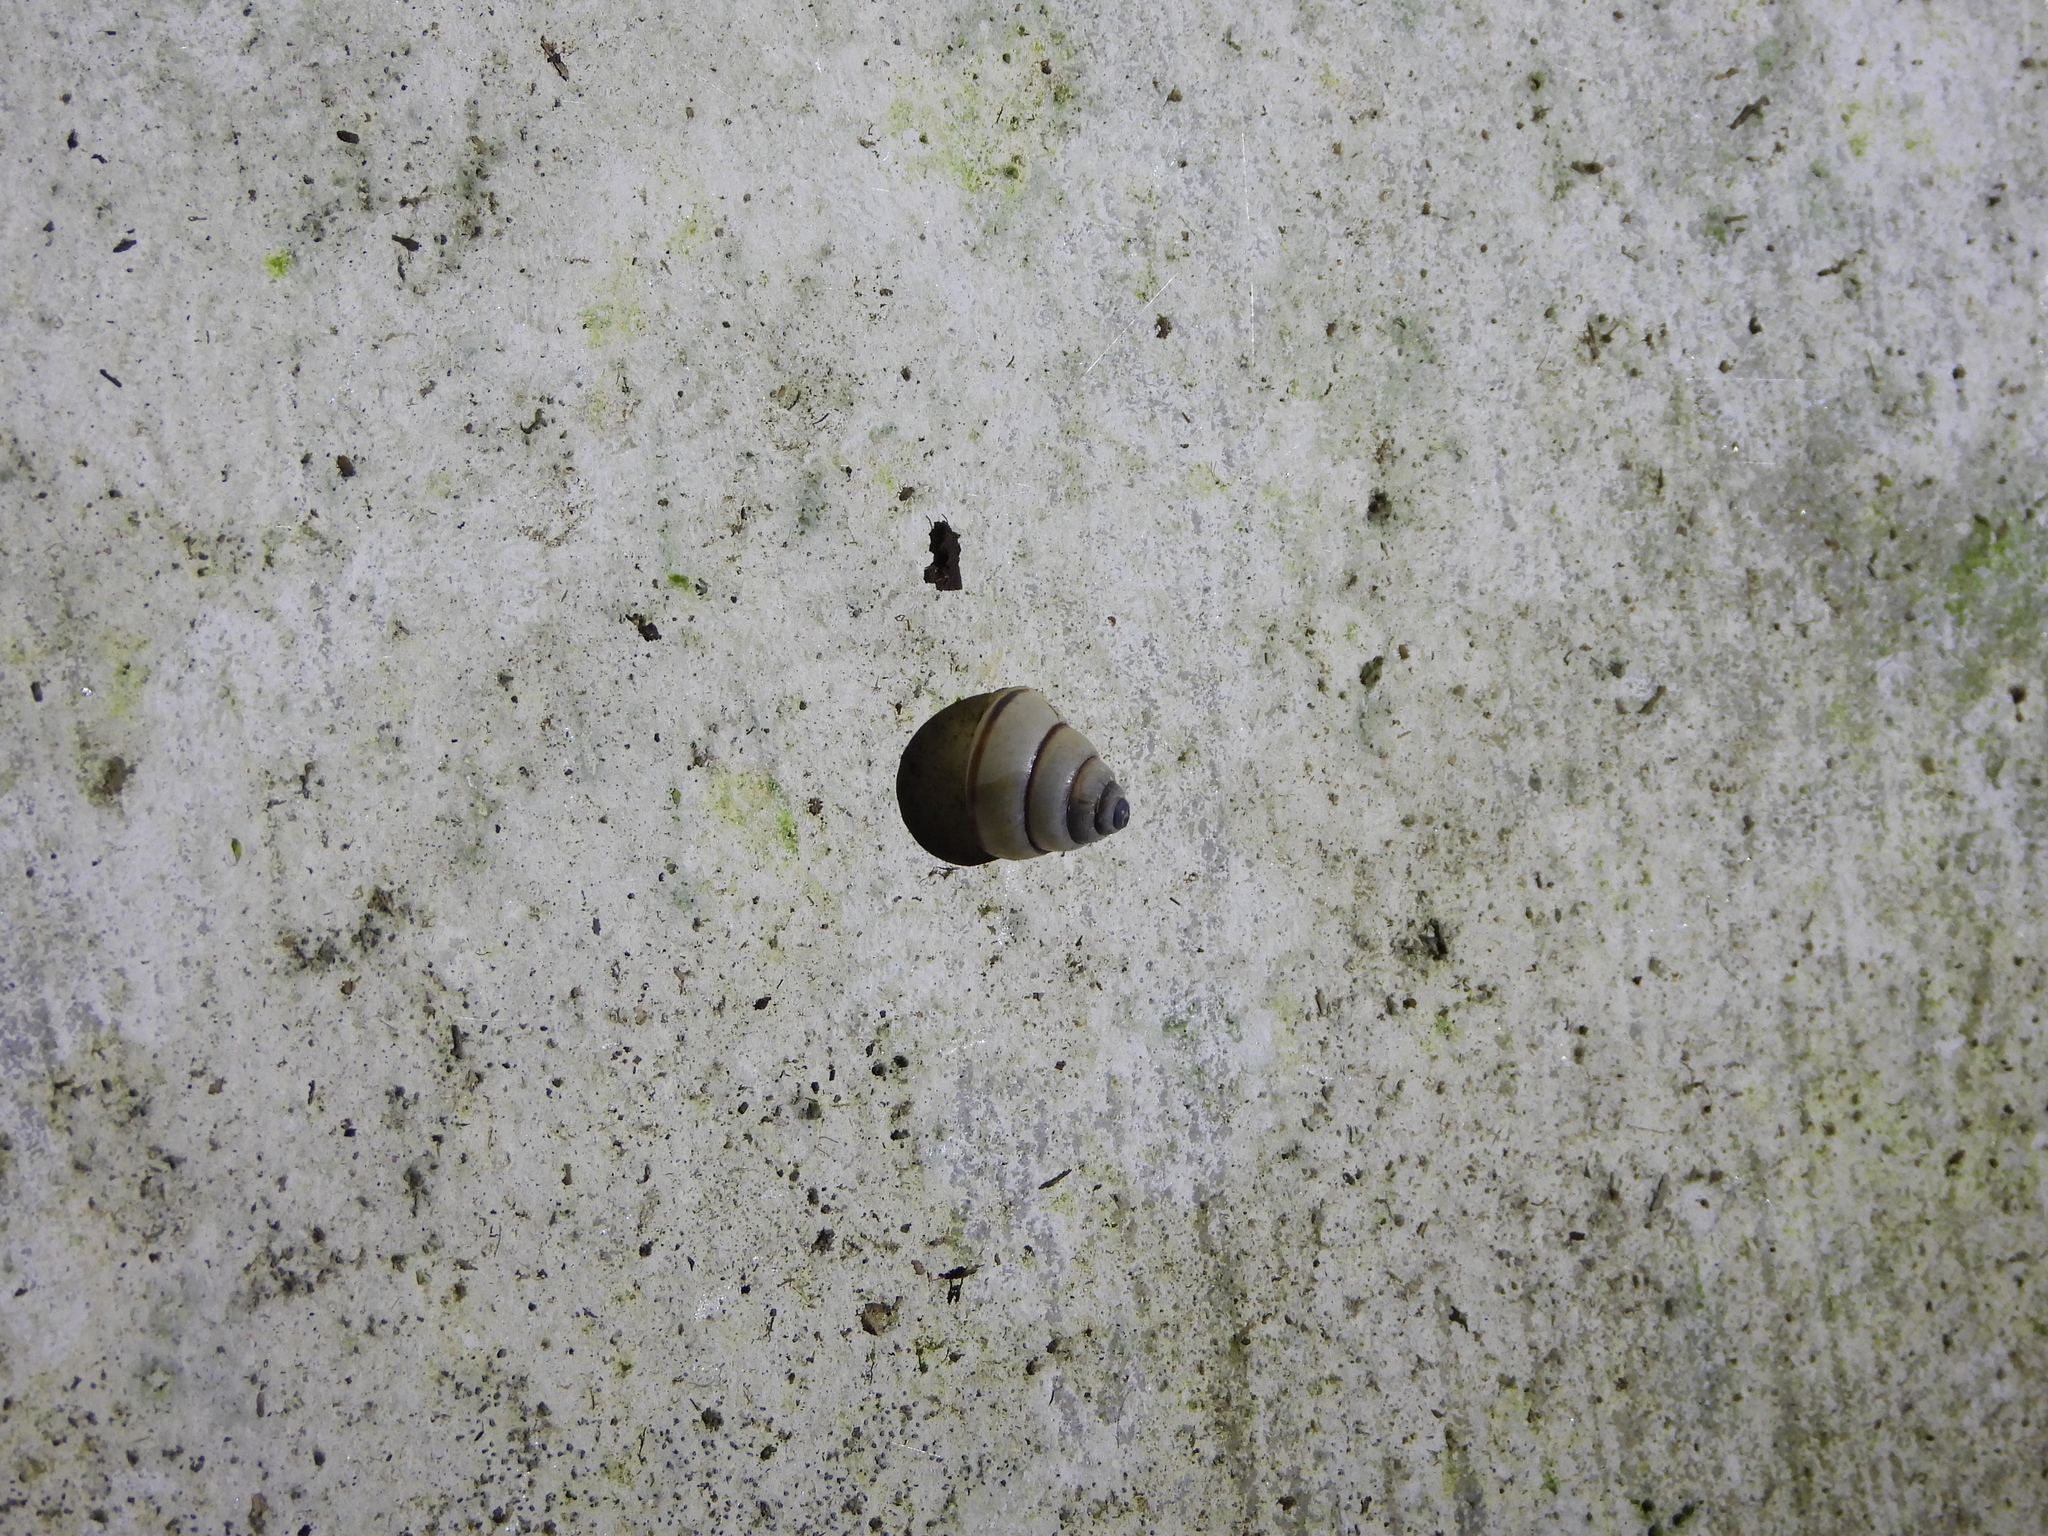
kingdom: Animalia
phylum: Mollusca
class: Gastropoda
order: Stylommatophora
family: Camaenidae
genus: Satsuma
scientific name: Satsuma polymorpha
